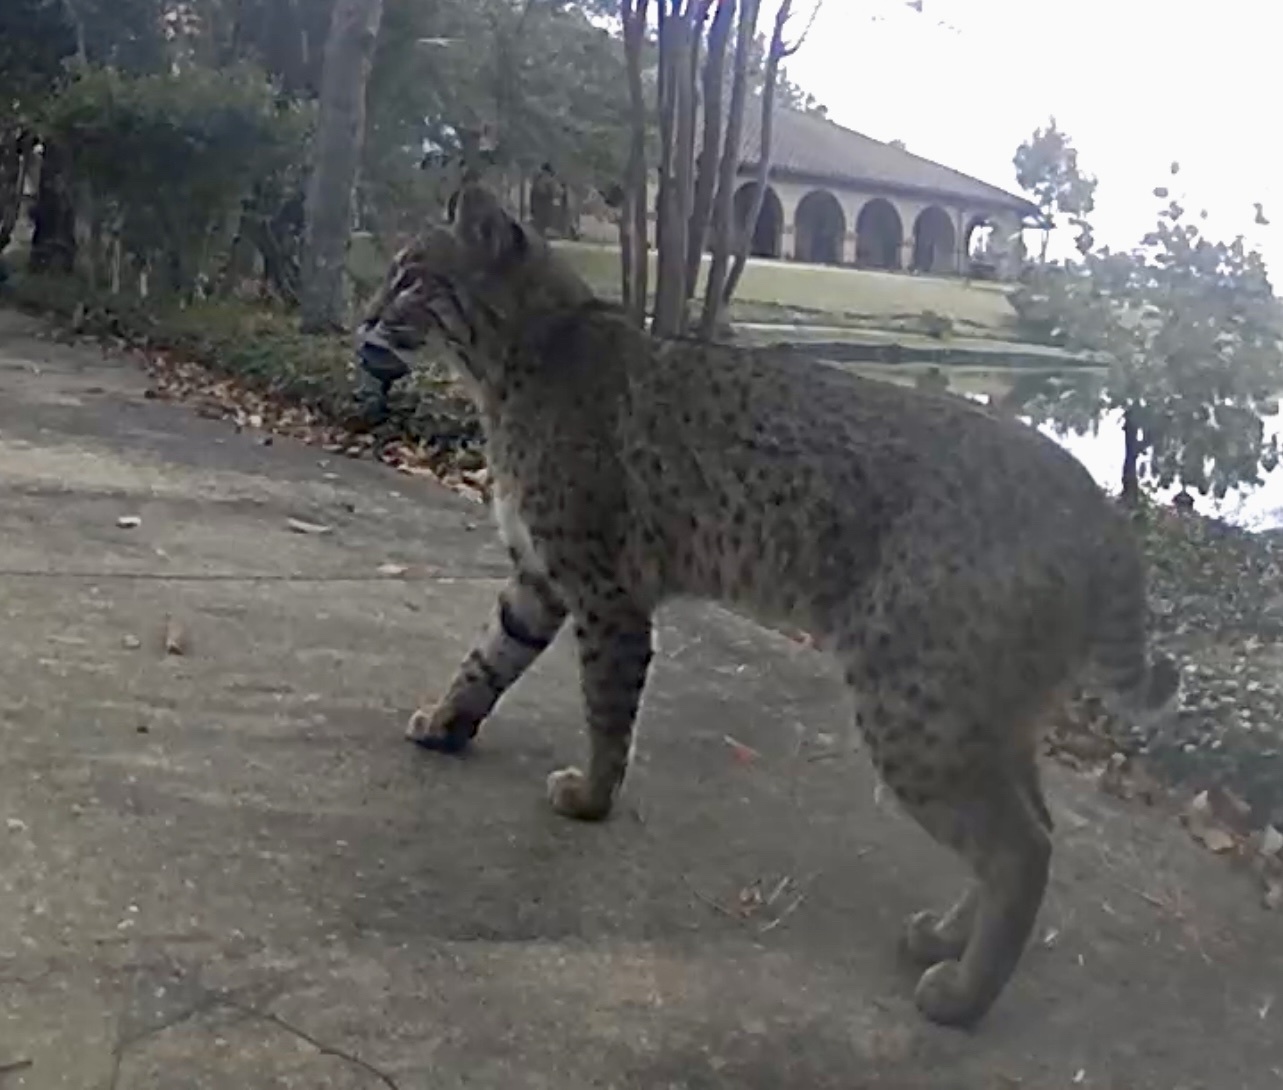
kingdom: Animalia
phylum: Chordata
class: Mammalia
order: Carnivora
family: Felidae
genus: Lynx
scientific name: Lynx rufus
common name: Bobcat
